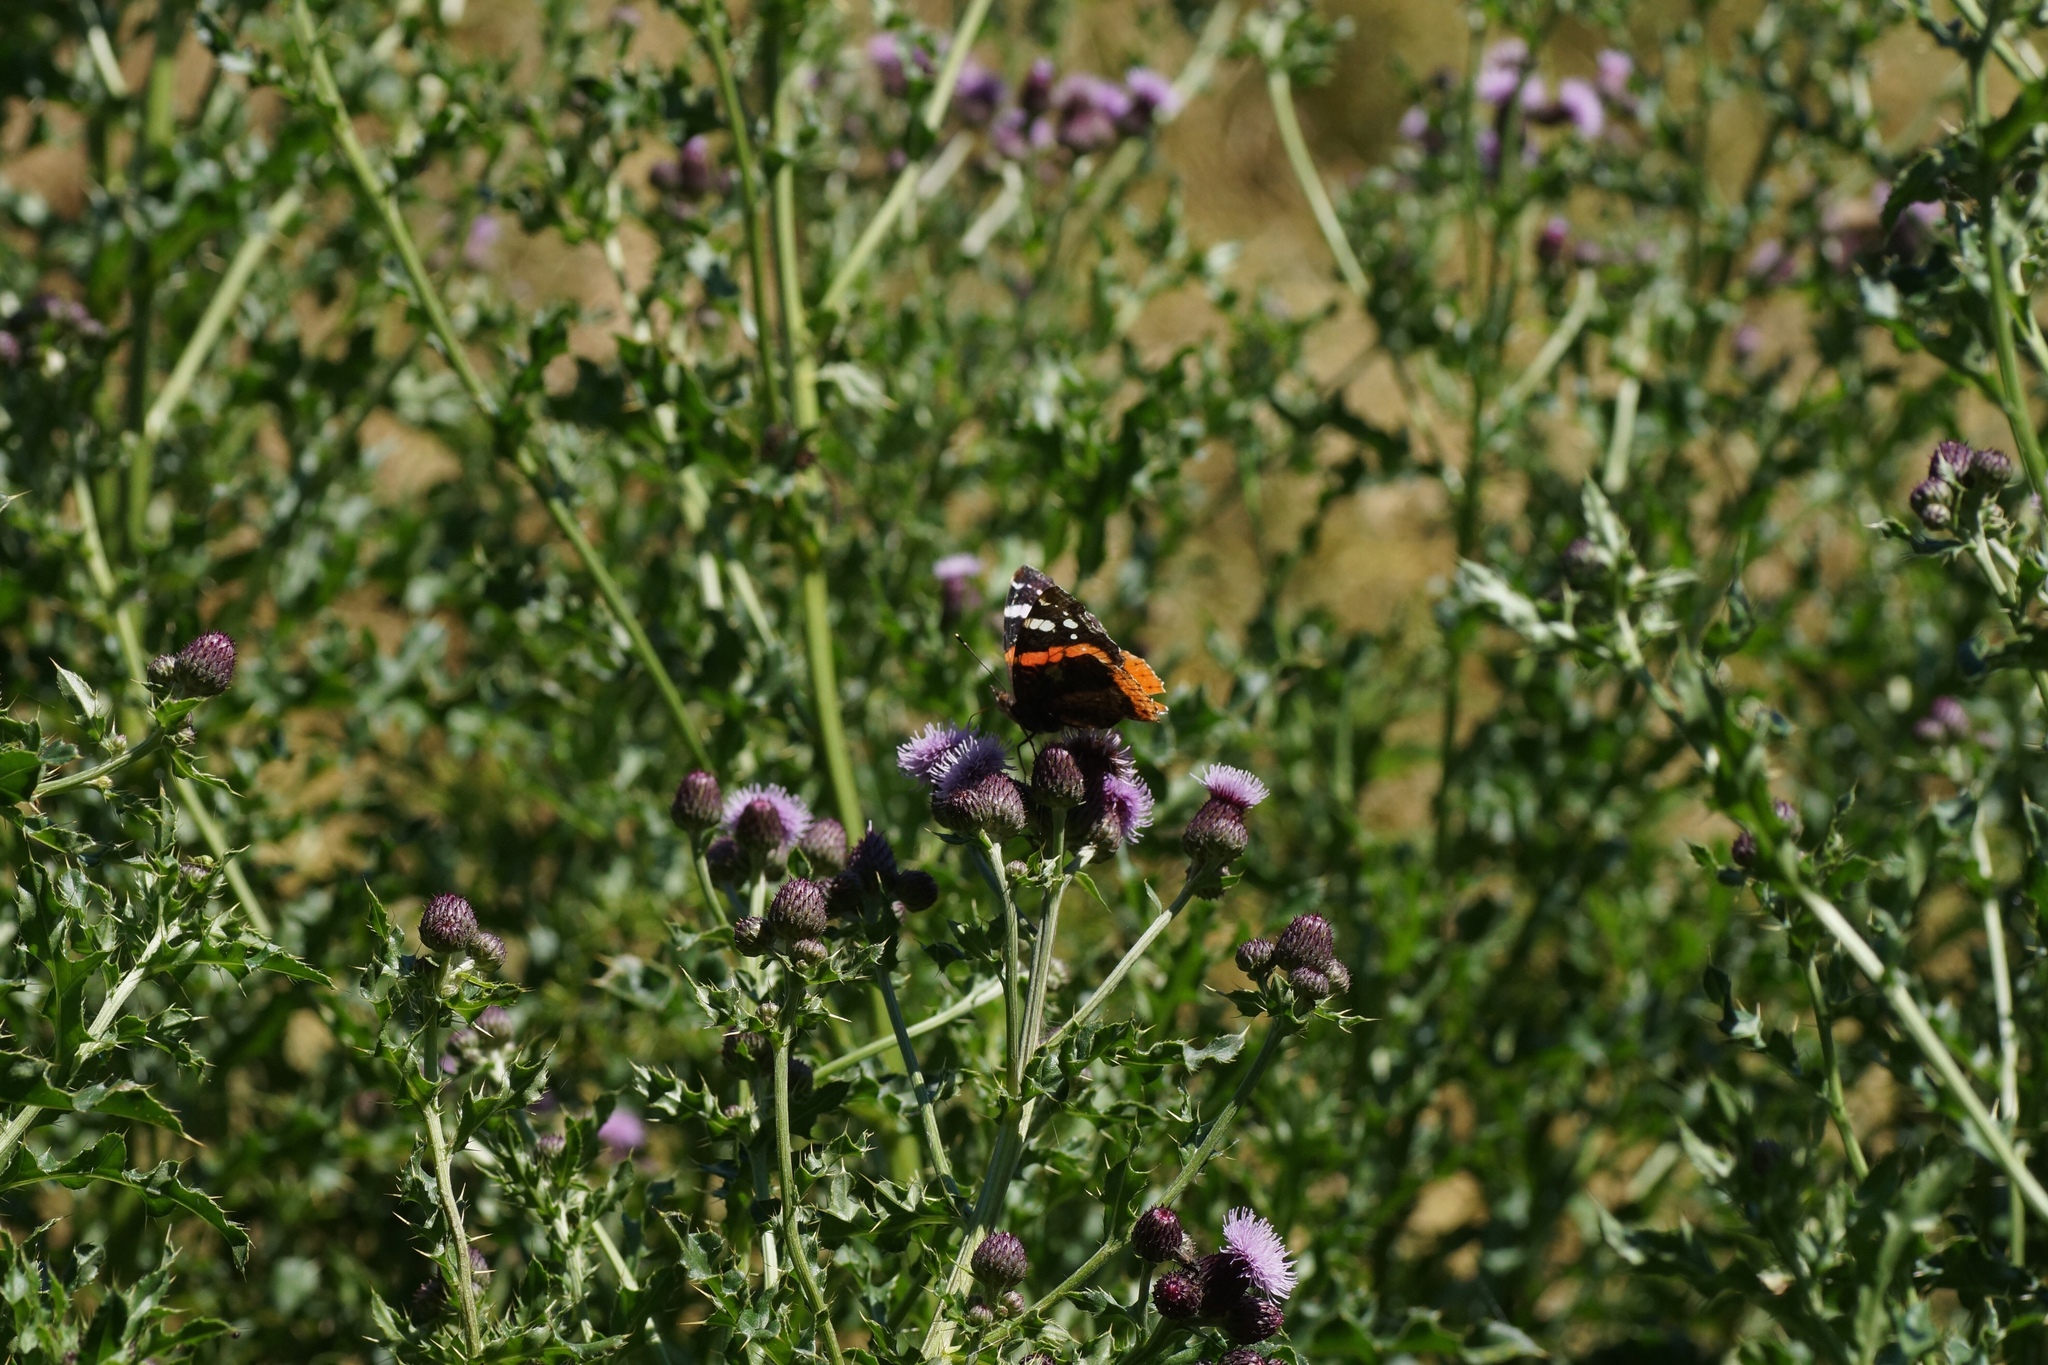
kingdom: Animalia
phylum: Arthropoda
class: Insecta
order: Lepidoptera
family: Nymphalidae
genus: Vanessa
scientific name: Vanessa atalanta
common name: Red admiral
